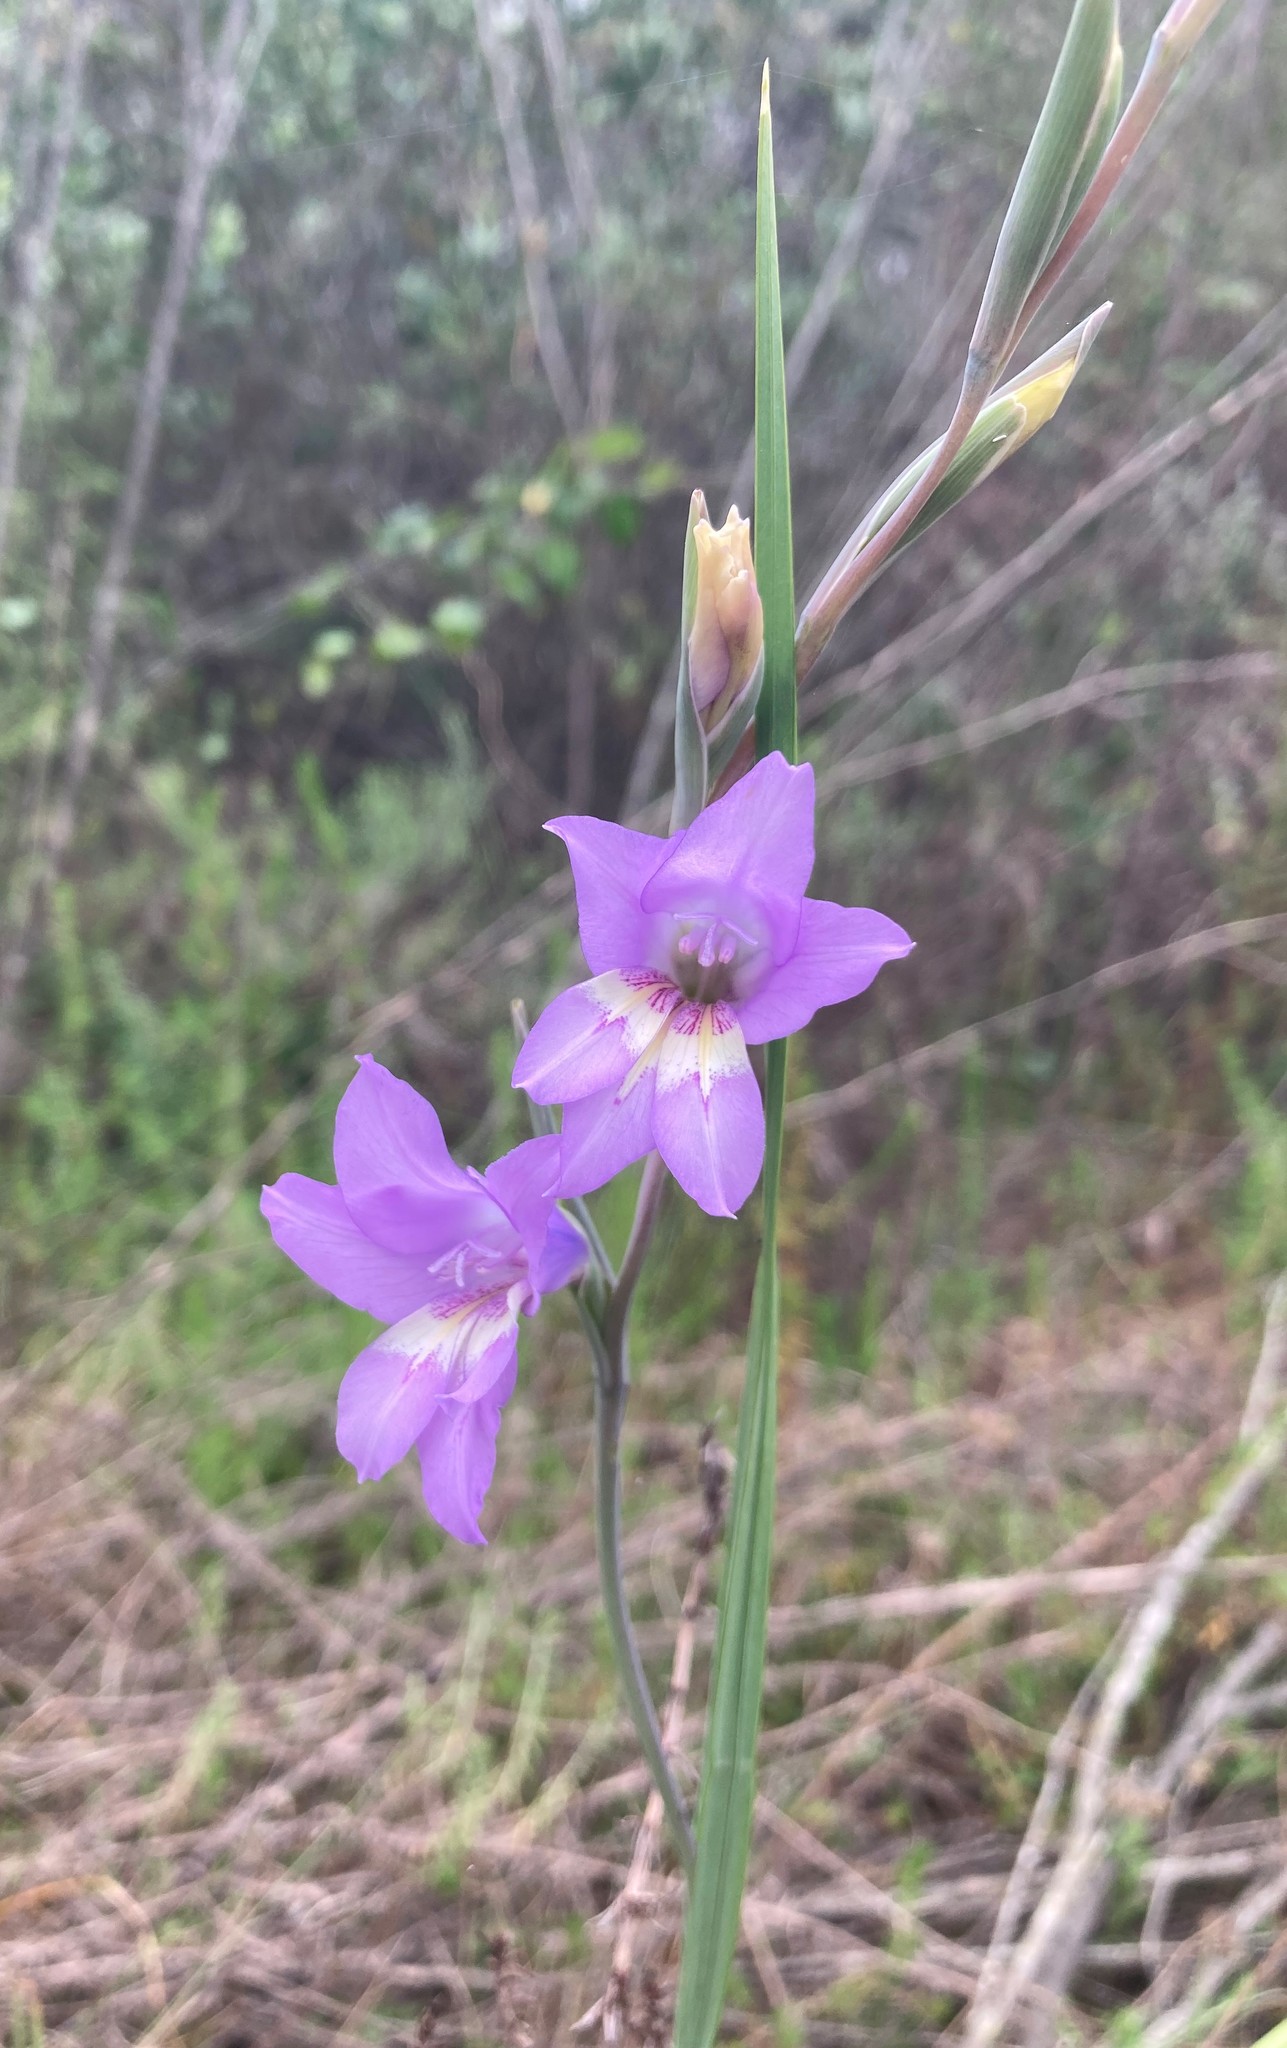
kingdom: Plantae
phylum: Tracheophyta
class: Liliopsida
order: Asparagales
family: Iridaceae
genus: Gladiolus
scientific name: Gladiolus carinatus
